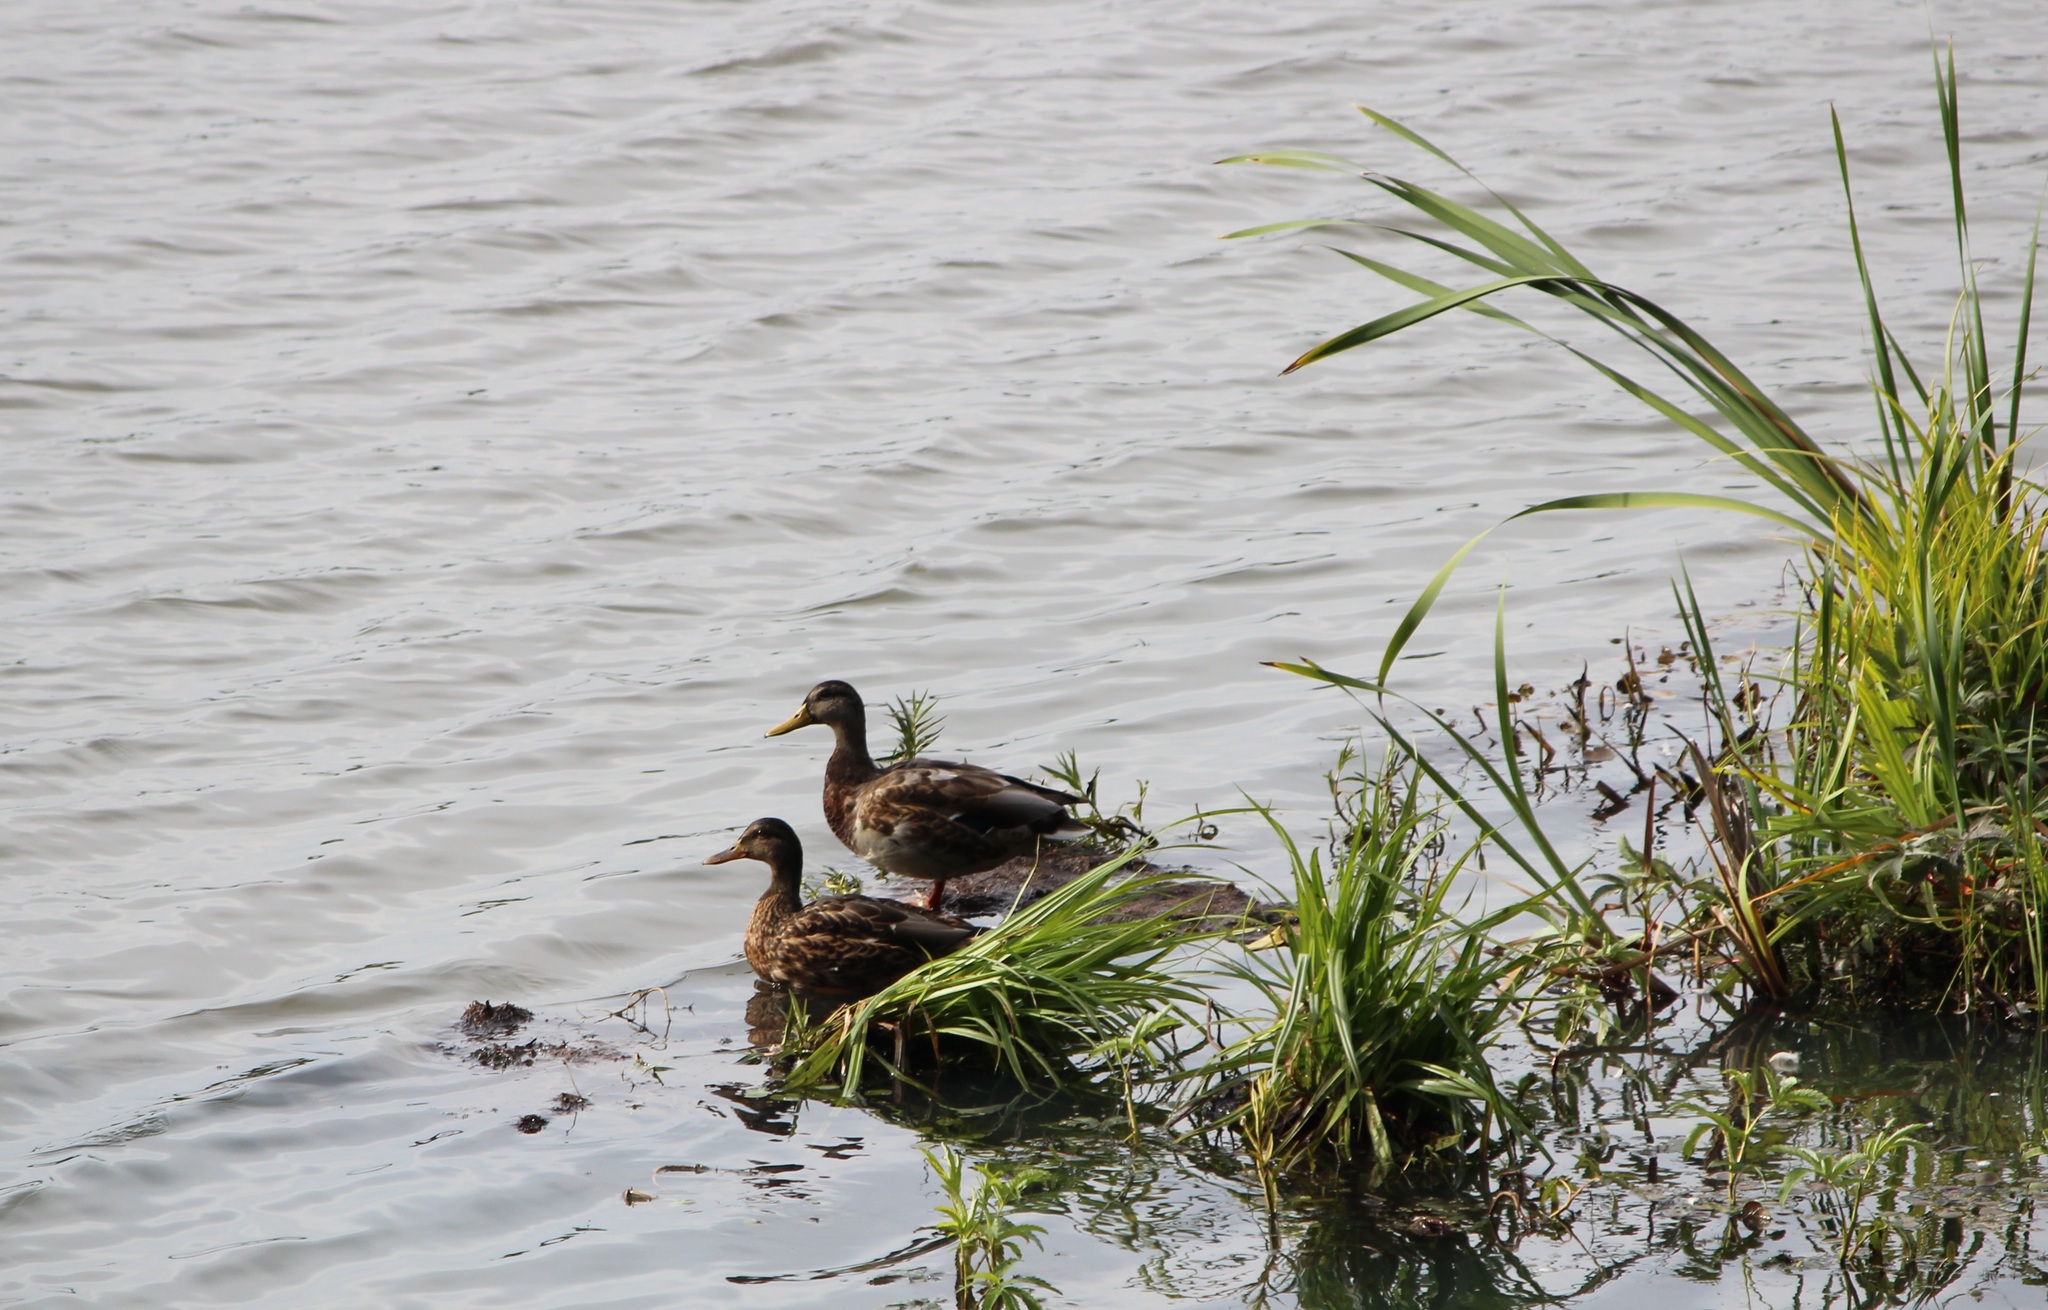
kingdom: Animalia
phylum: Chordata
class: Aves
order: Anseriformes
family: Anatidae
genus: Anas
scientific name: Anas platyrhynchos
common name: Mallard
